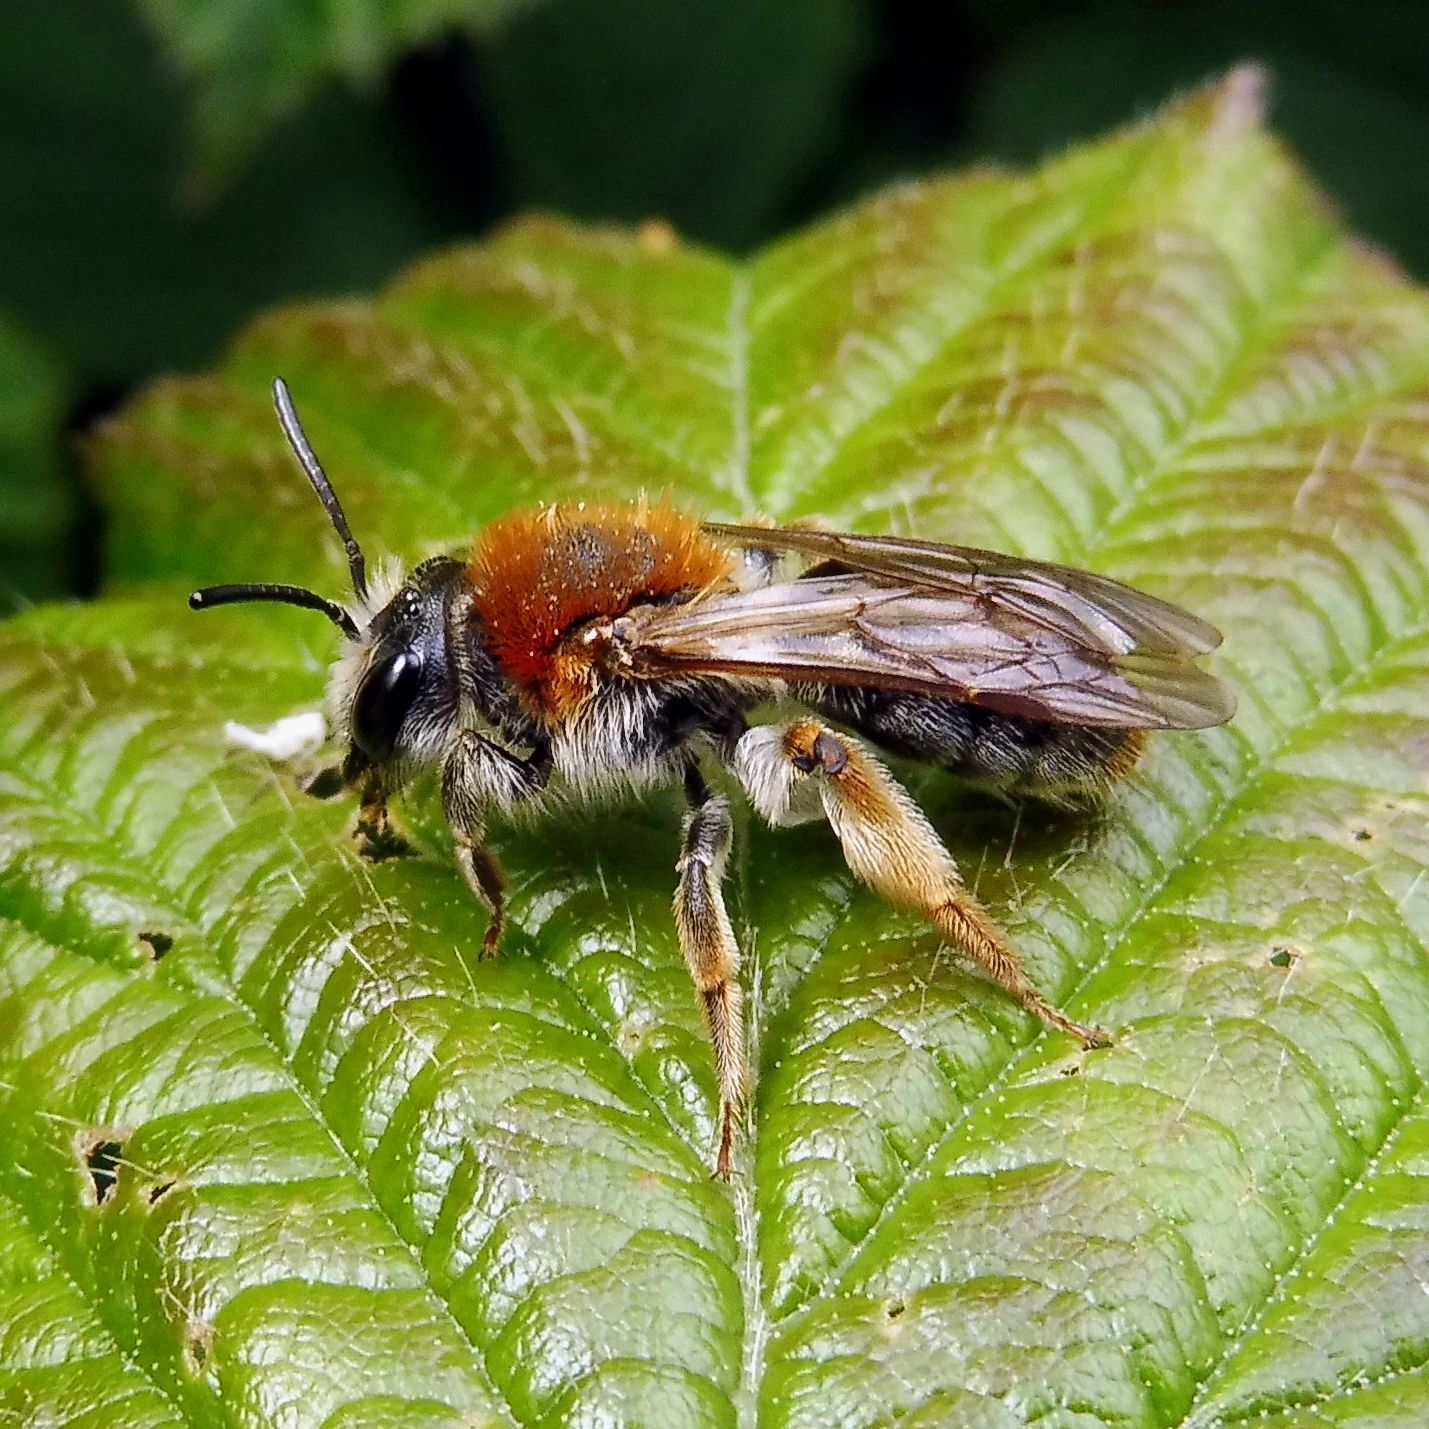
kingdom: Animalia
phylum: Arthropoda
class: Insecta
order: Hymenoptera
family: Andrenidae
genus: Andrena
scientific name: Andrena haemorrhoa
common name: Early mining bee
